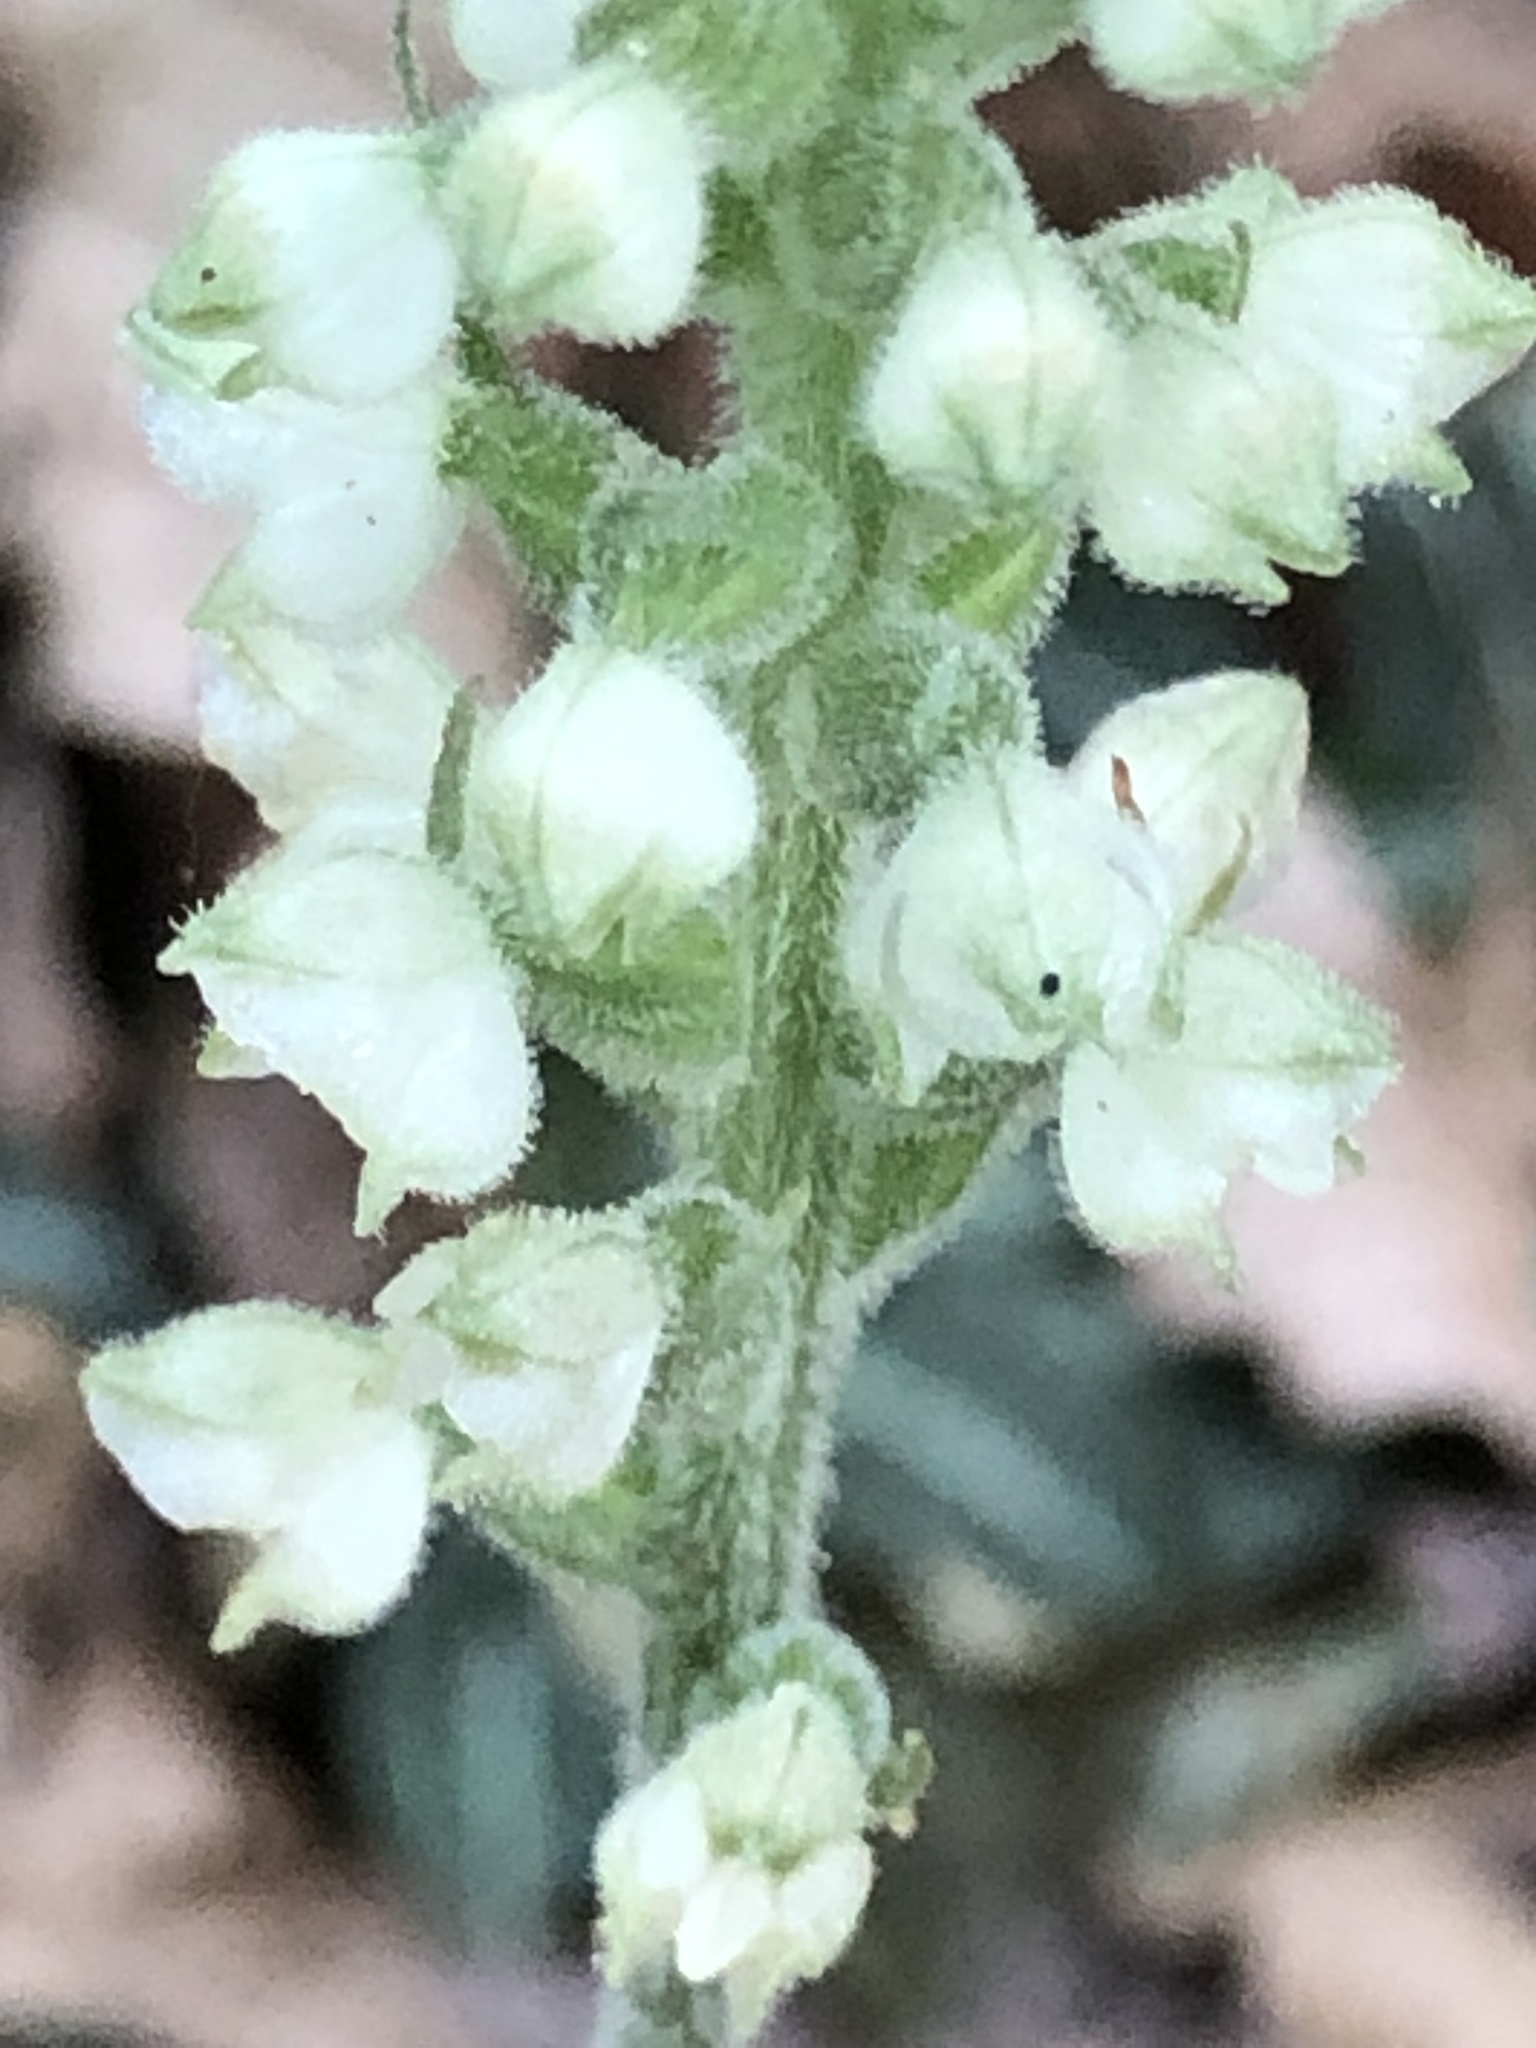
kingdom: Plantae
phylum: Tracheophyta
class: Liliopsida
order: Asparagales
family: Orchidaceae
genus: Goodyera
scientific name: Goodyera pubescens
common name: Downy rattlesnake-plantain
